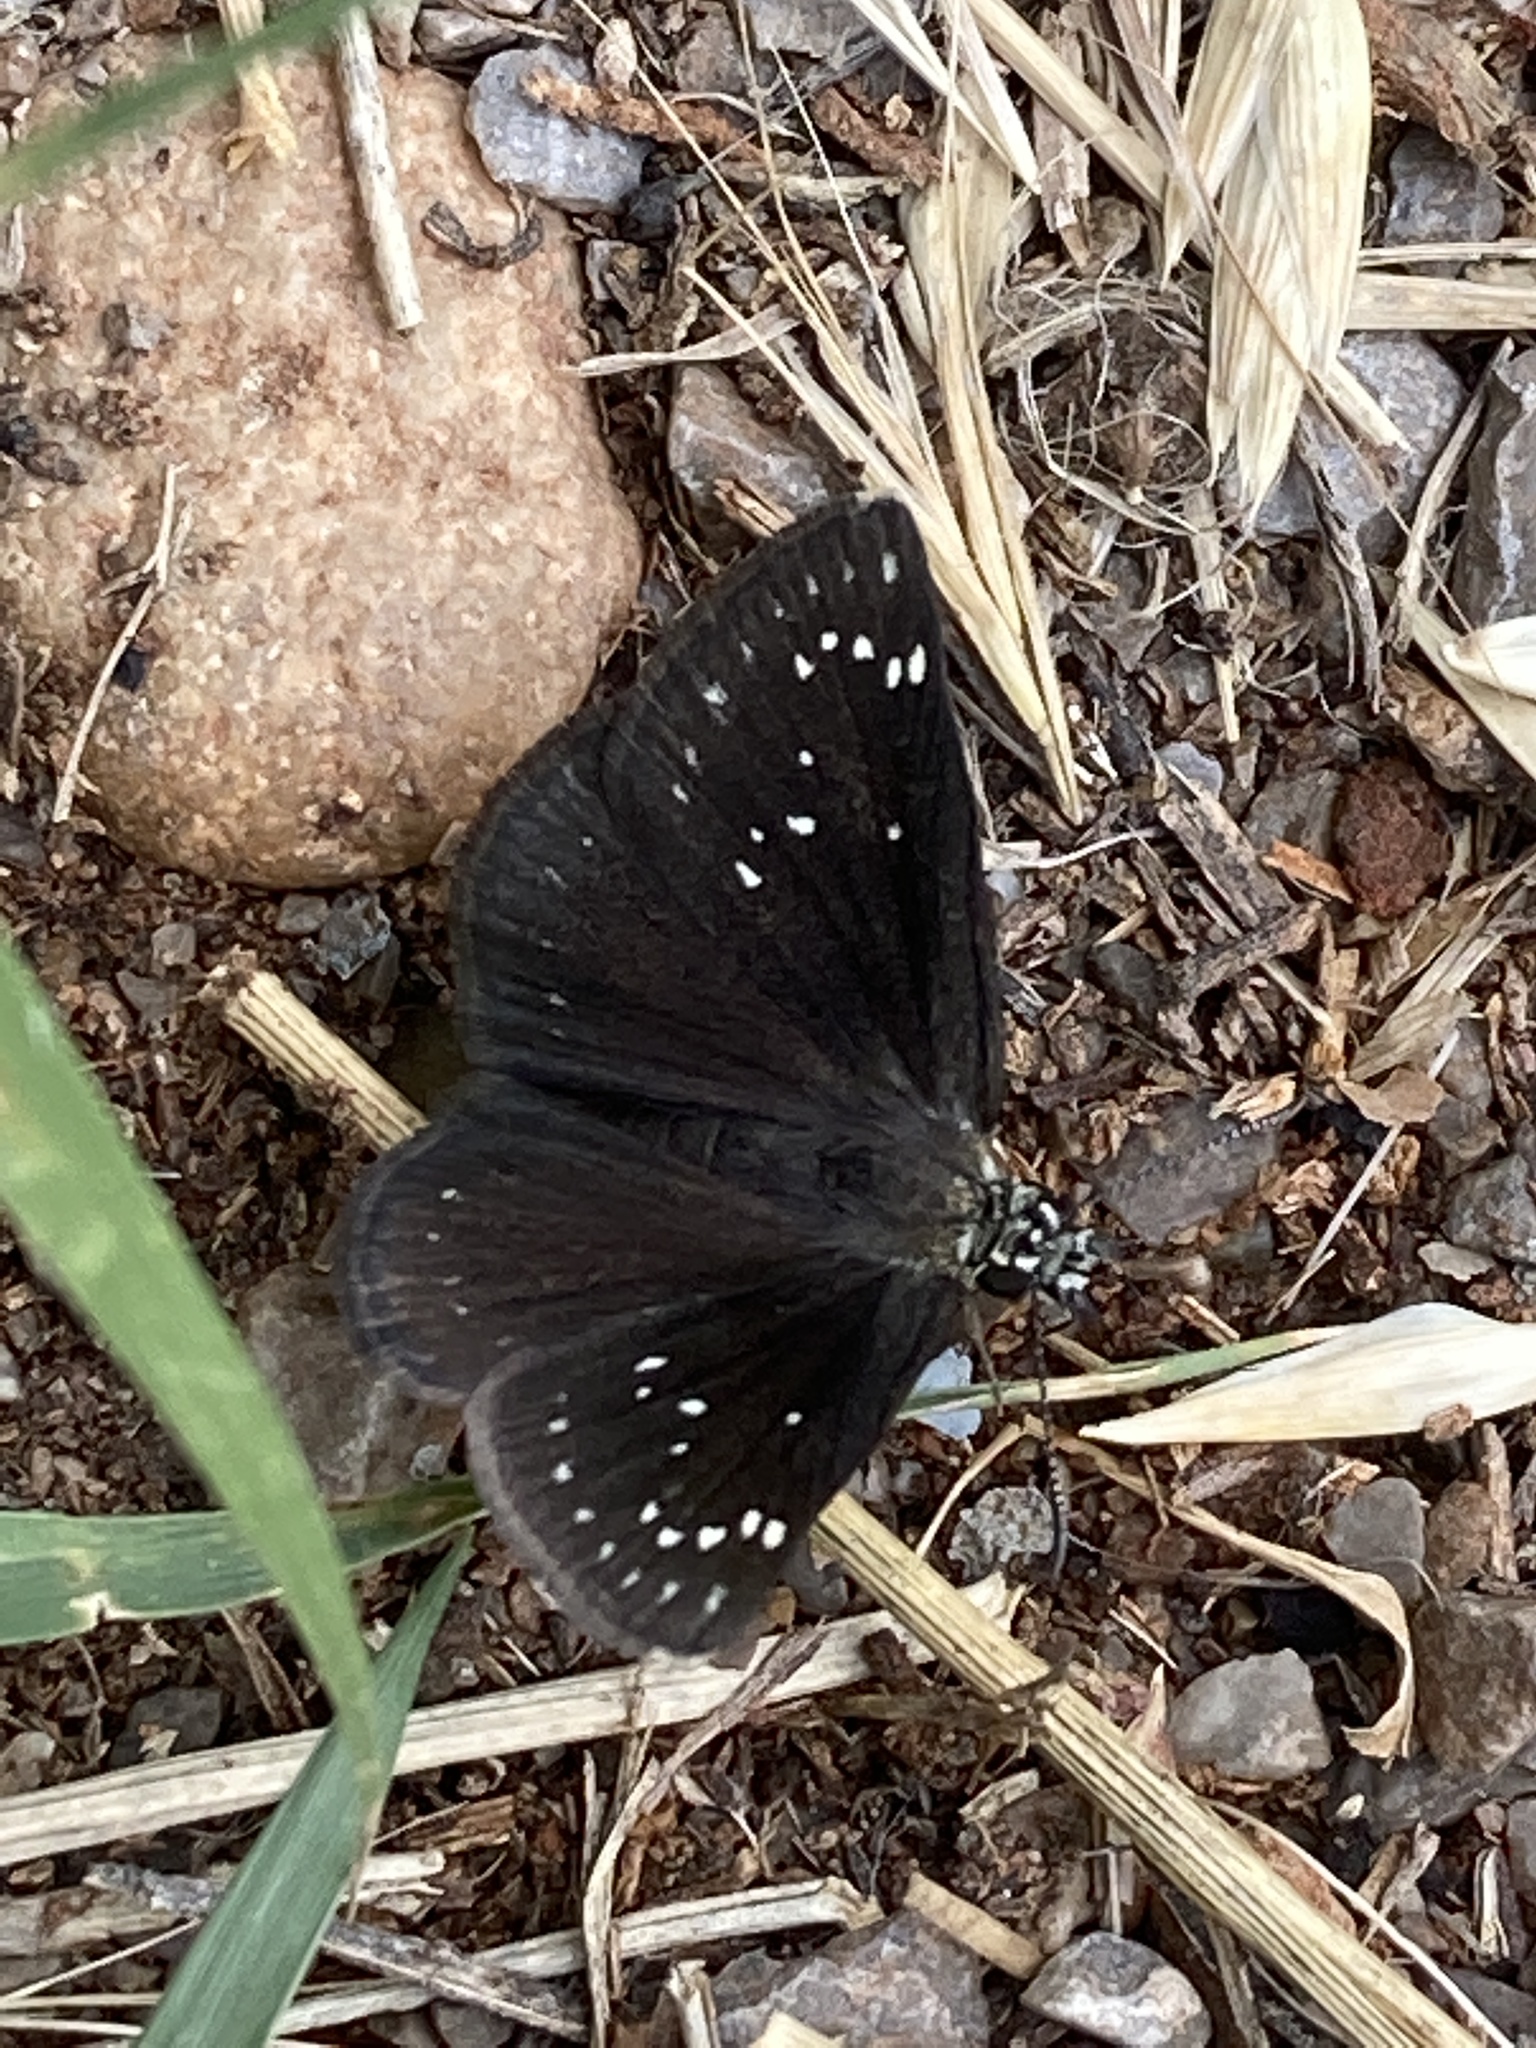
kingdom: Animalia
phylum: Arthropoda
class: Insecta
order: Lepidoptera
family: Hesperiidae
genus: Pholisora
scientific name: Pholisora catullus
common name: Common sootywing
